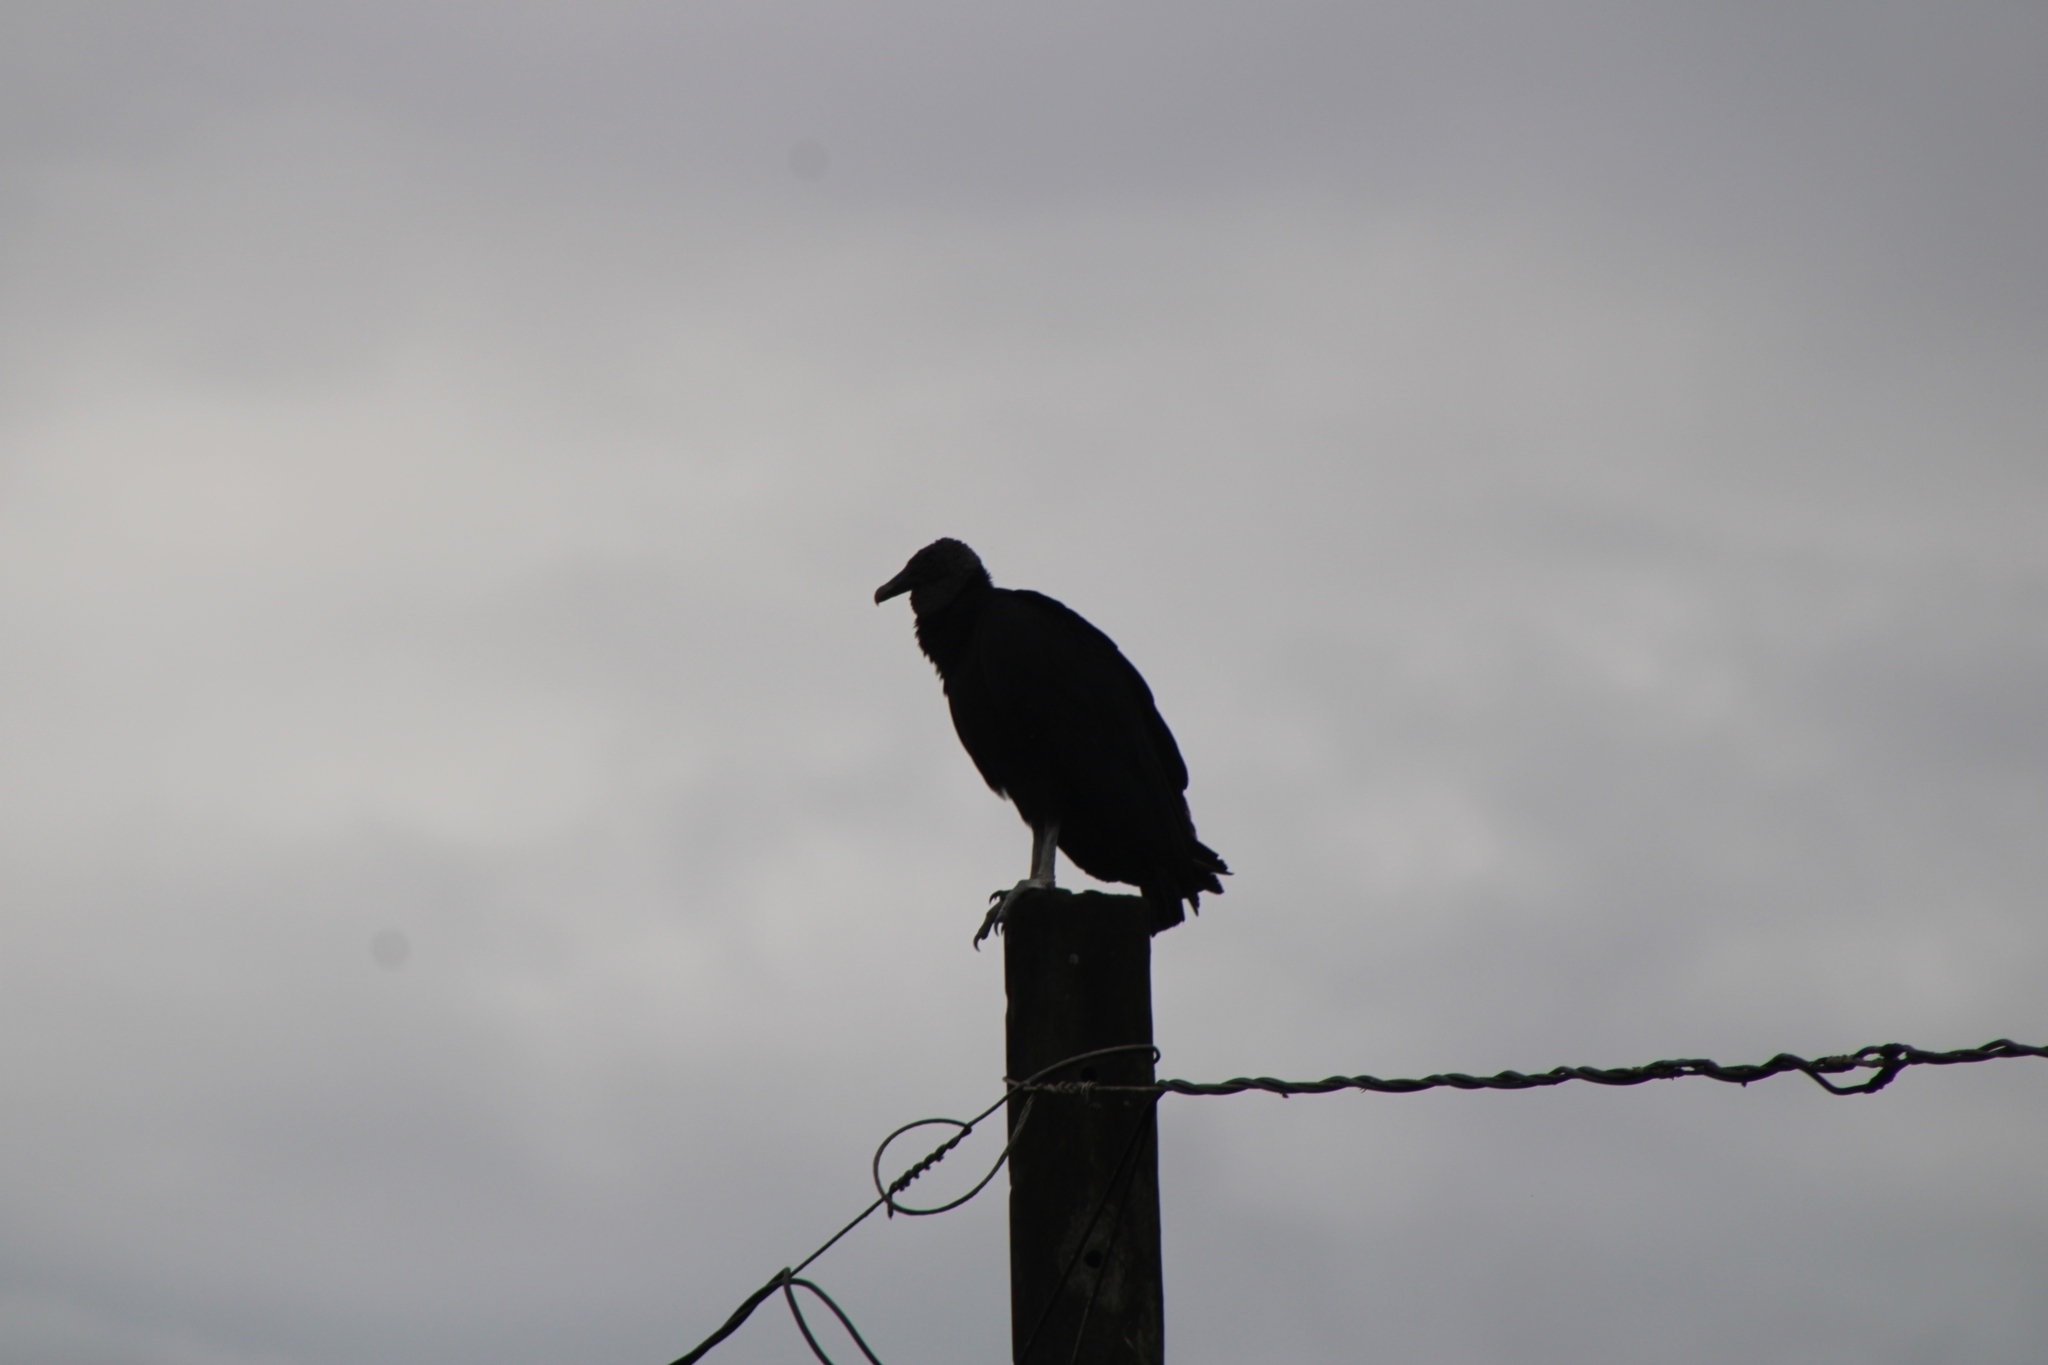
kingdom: Animalia
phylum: Chordata
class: Aves
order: Accipitriformes
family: Cathartidae
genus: Coragyps
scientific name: Coragyps atratus
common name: Black vulture
